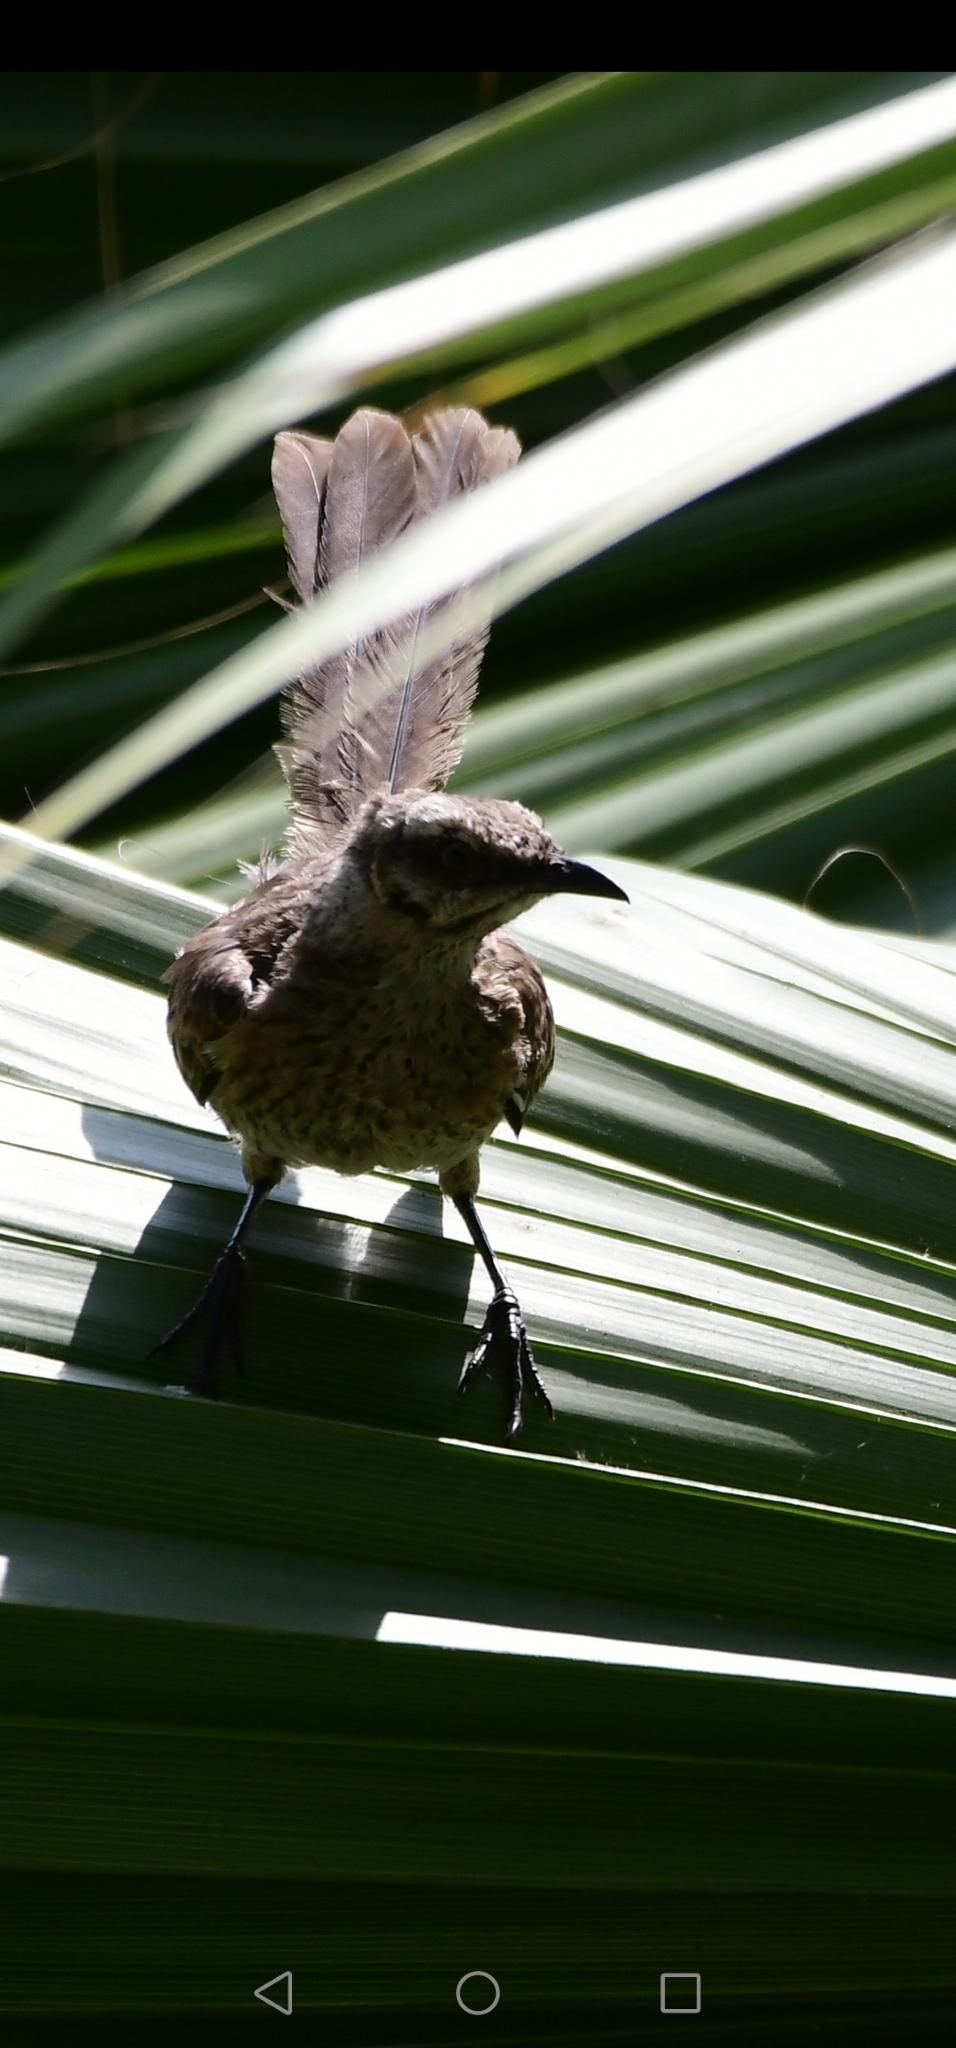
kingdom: Animalia
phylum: Chordata
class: Aves
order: Passeriformes
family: Mimidae
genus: Mimus
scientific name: Mimus longicaudatus
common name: Long-tailed mockingbird
